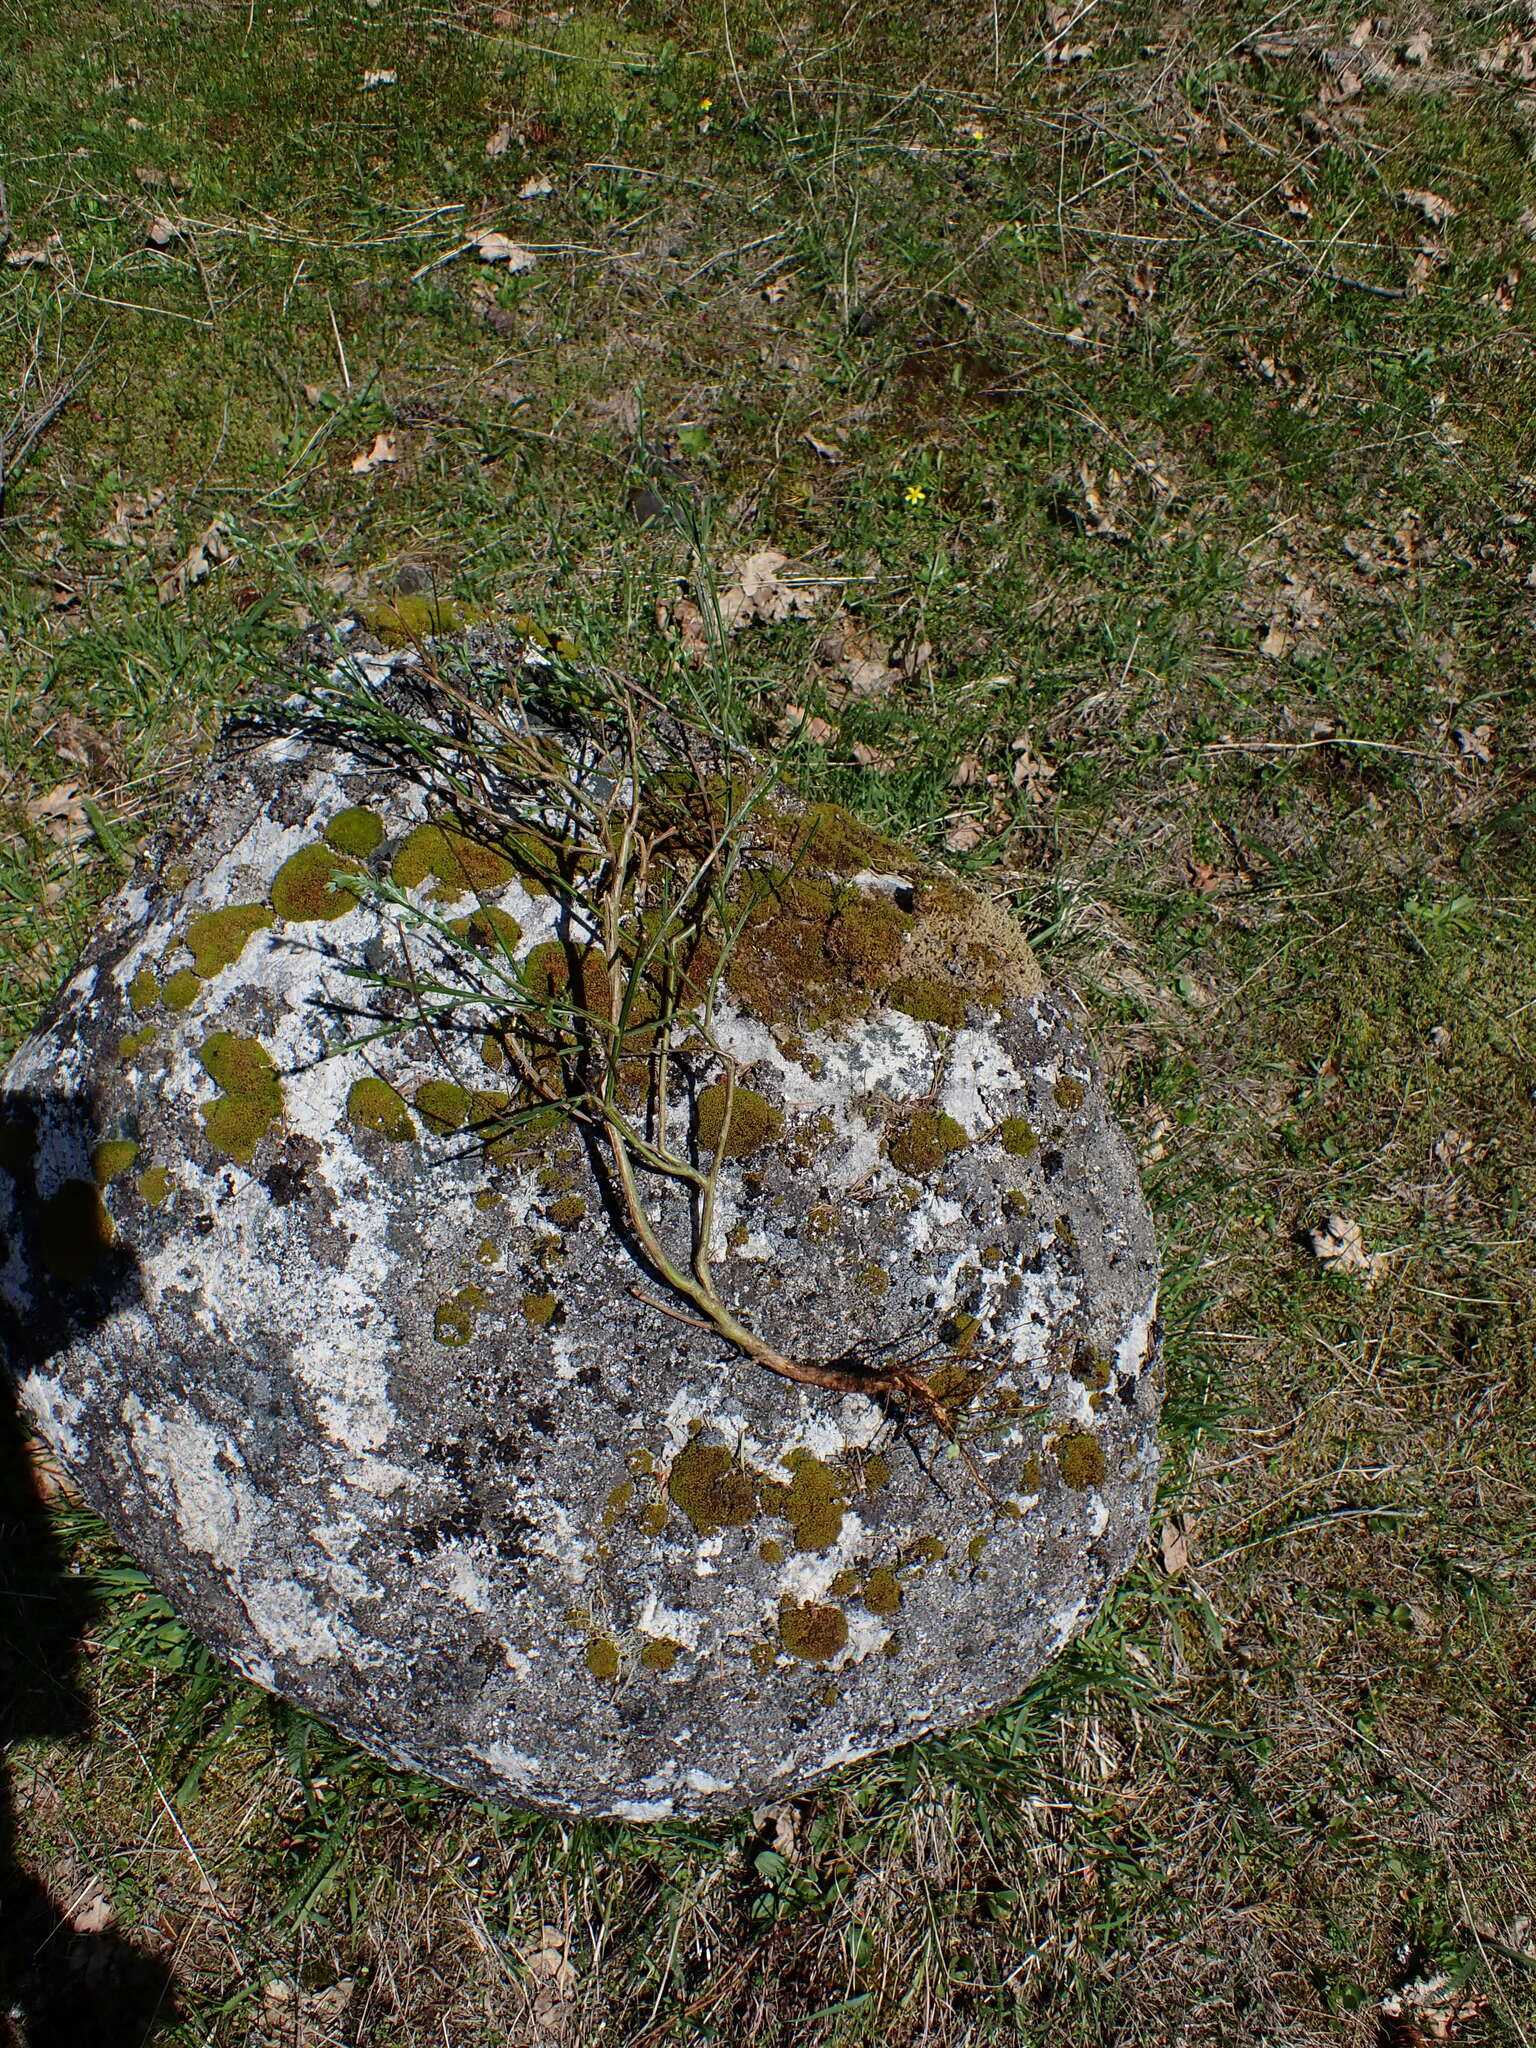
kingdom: Plantae
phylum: Tracheophyta
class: Magnoliopsida
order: Fabales
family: Fabaceae
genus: Cytisus
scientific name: Cytisus scoparius
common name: Scotch broom
